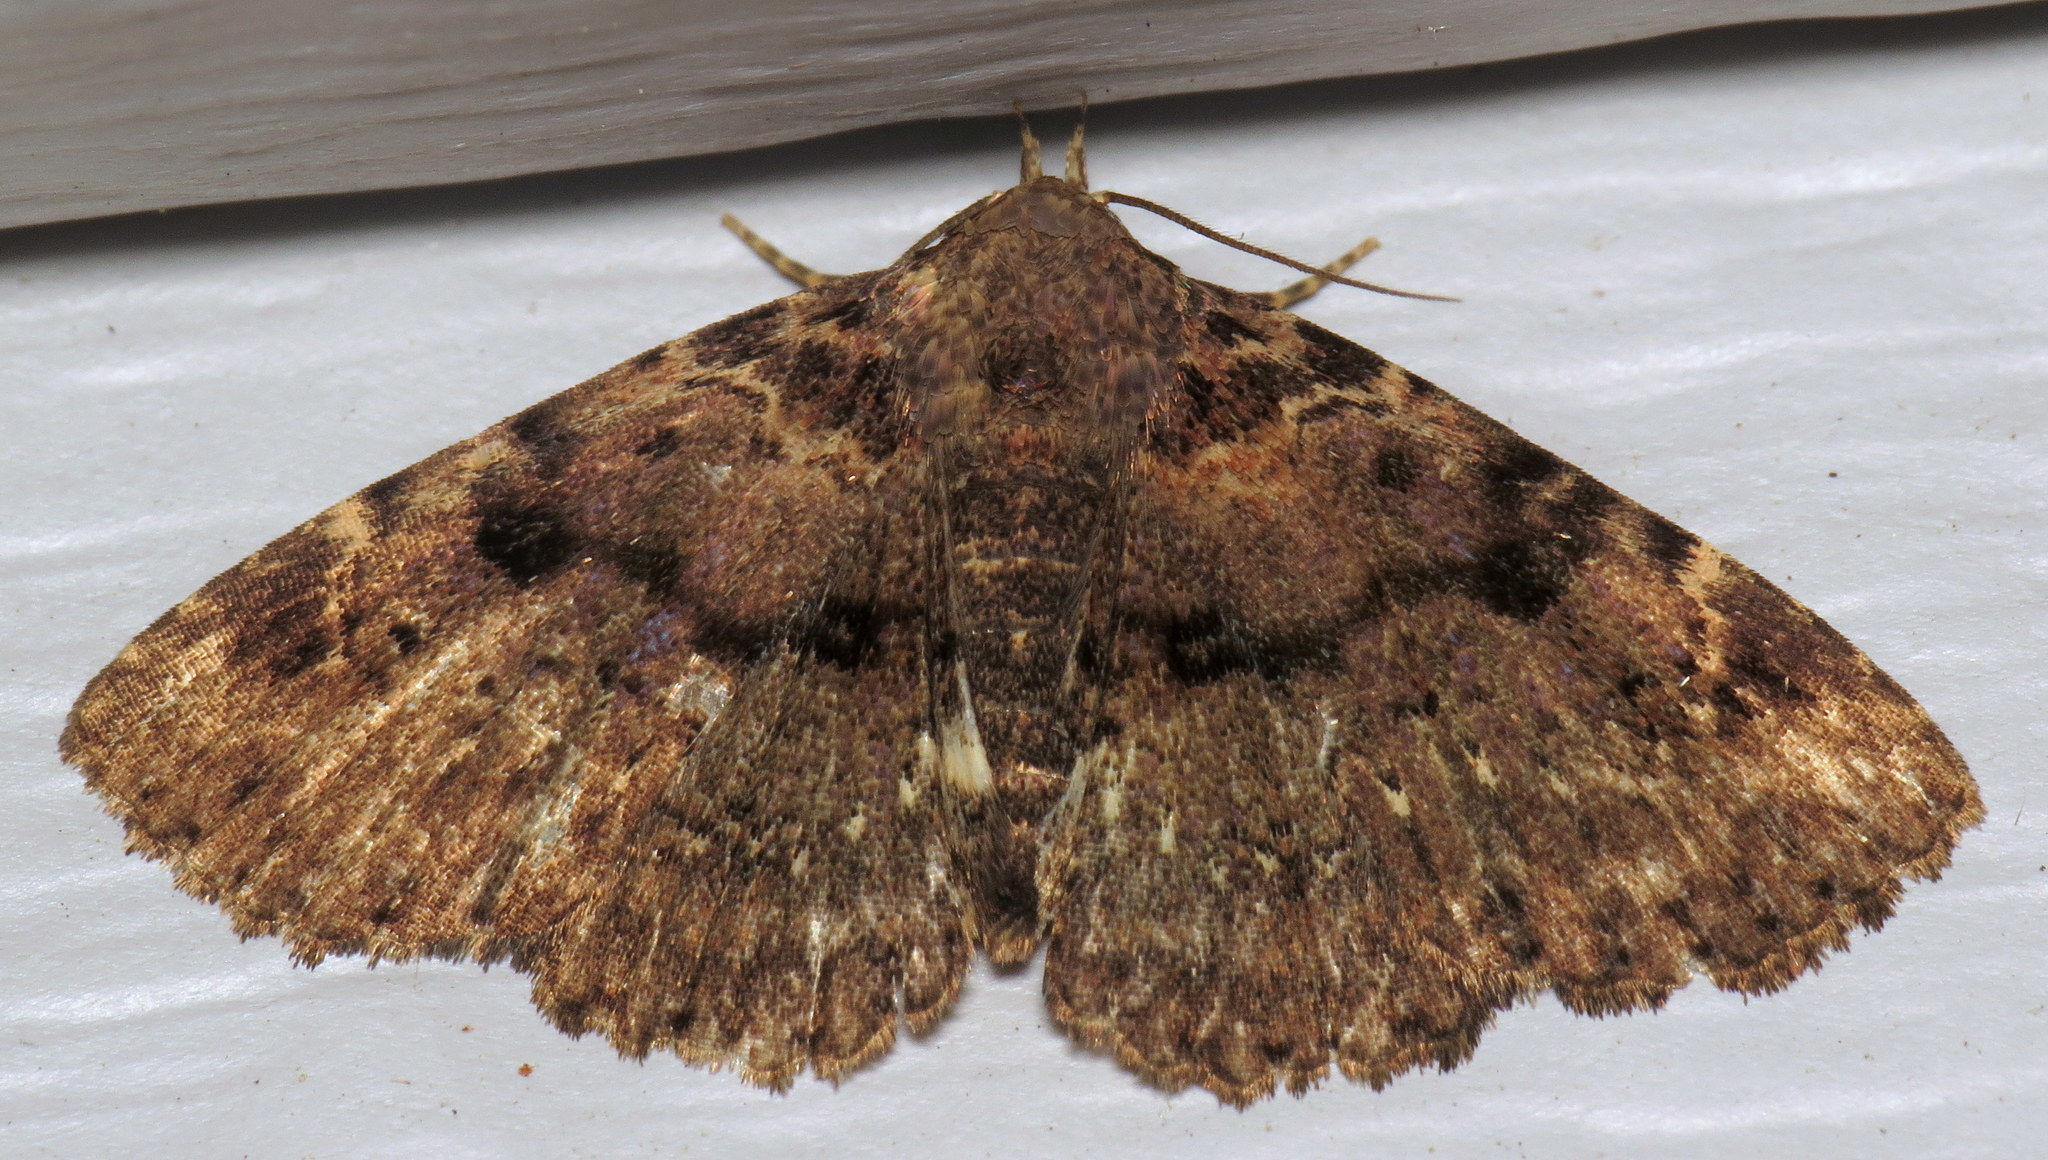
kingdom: Animalia
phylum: Arthropoda
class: Insecta
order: Lepidoptera
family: Erebidae
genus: Metalectra
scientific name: Metalectra discalis
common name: Common fungus moth
